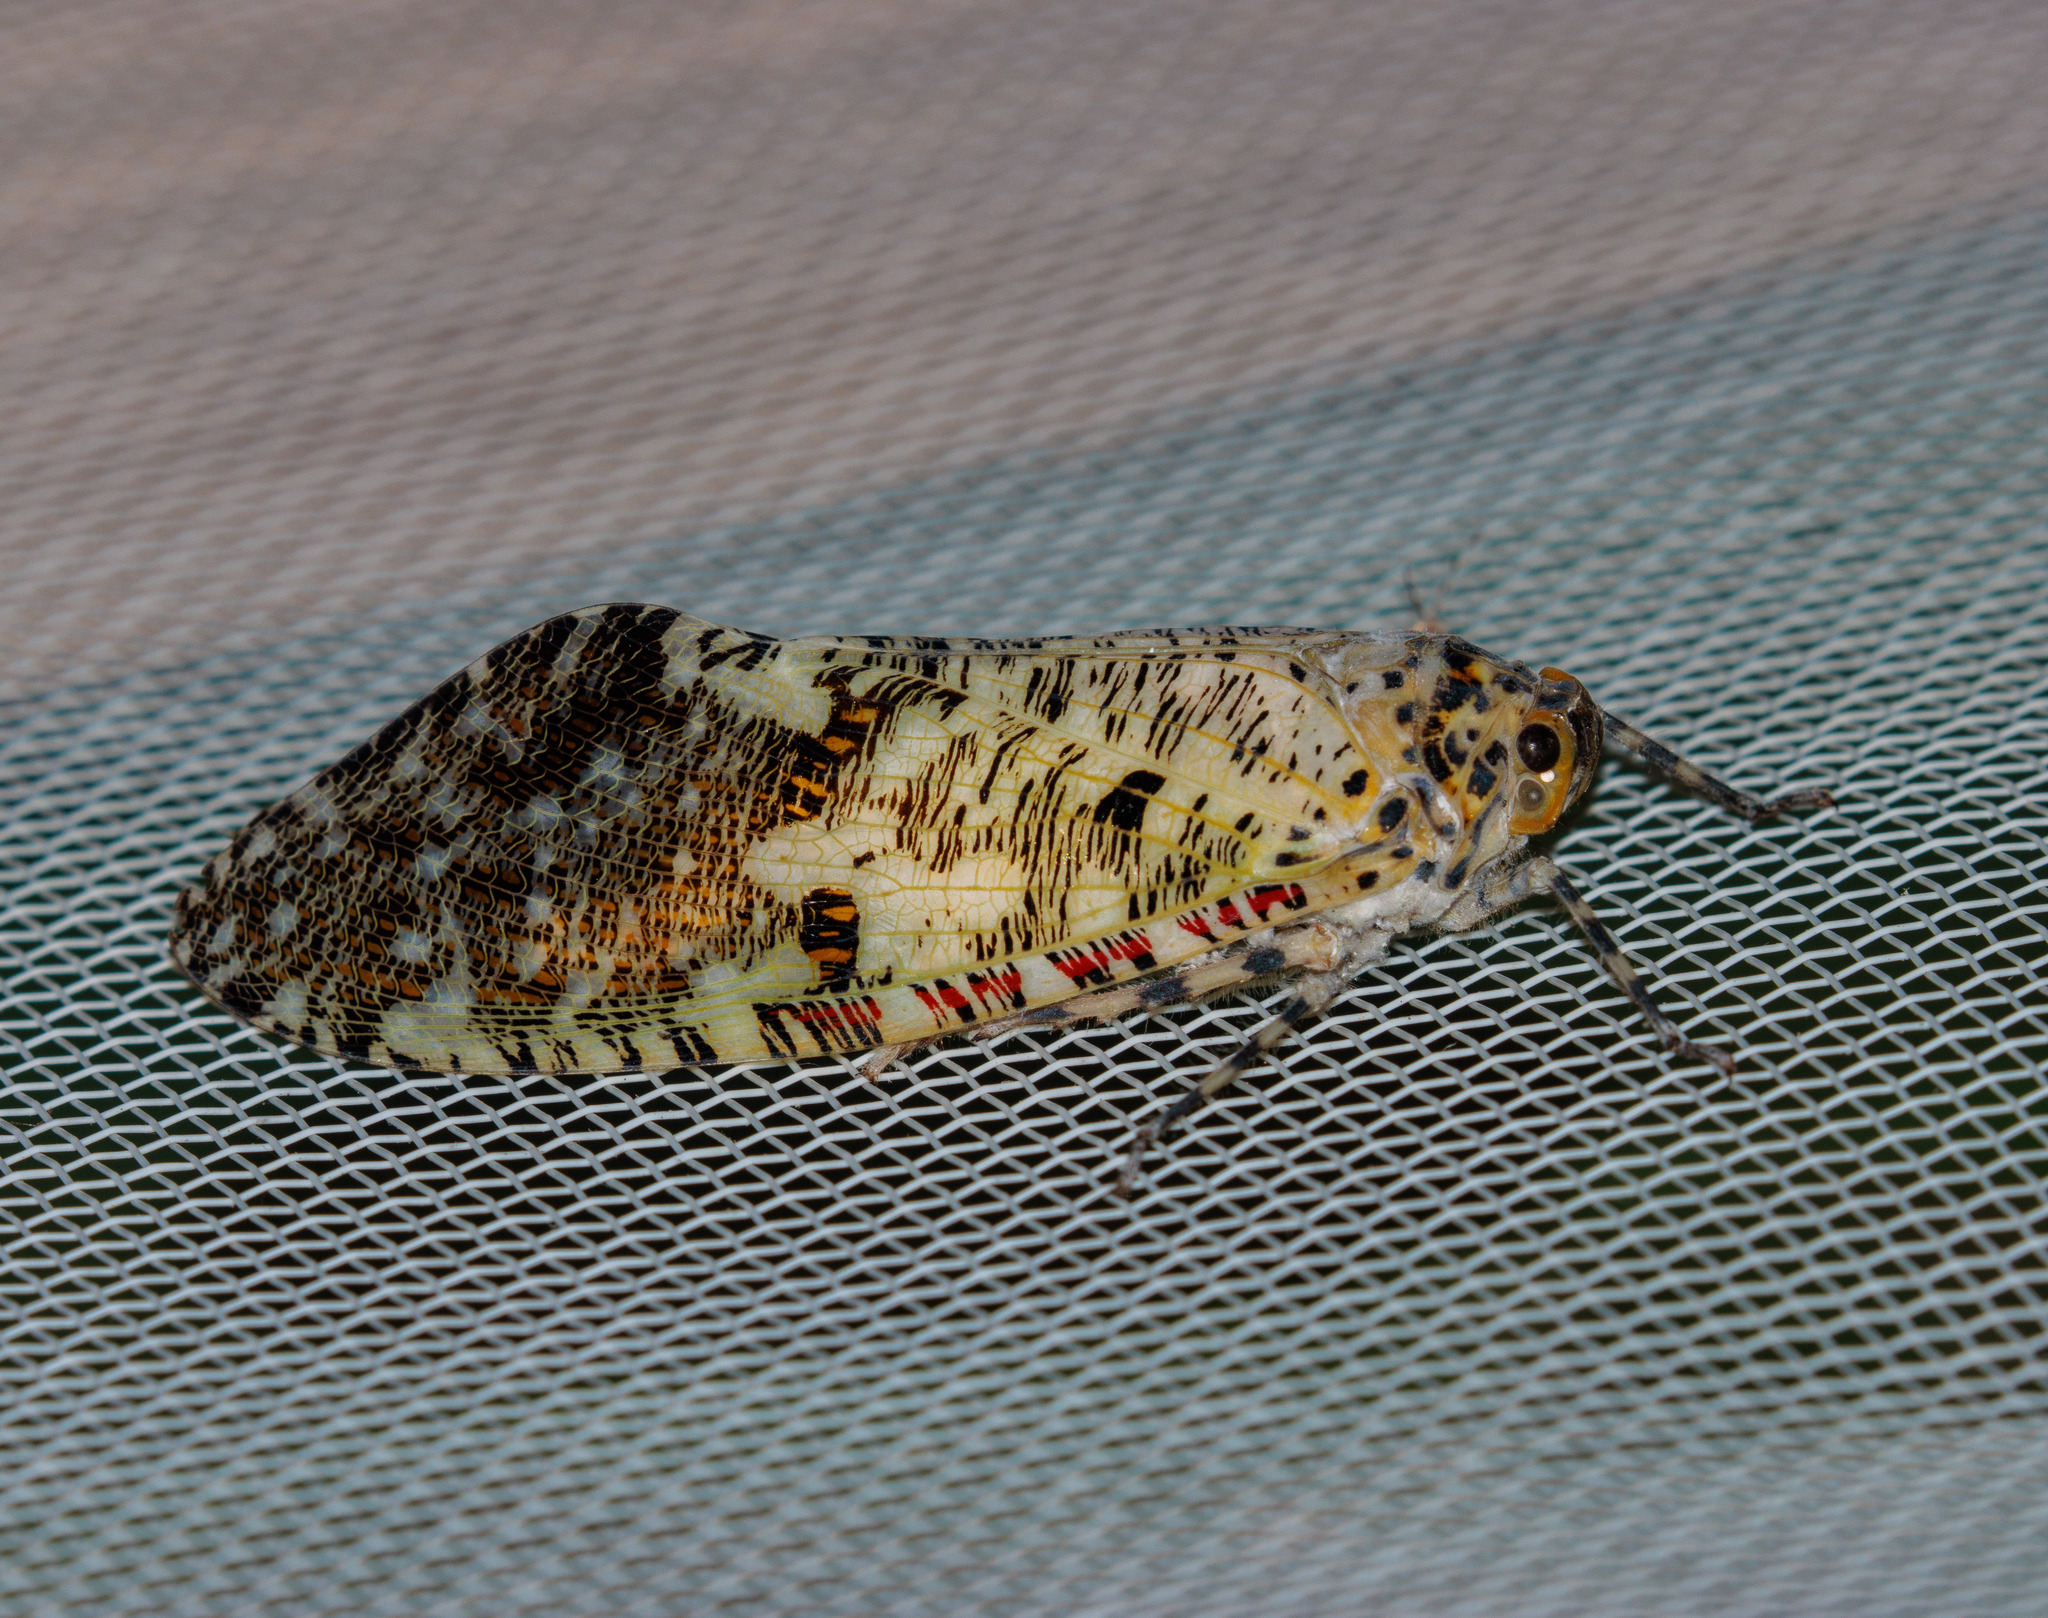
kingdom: Animalia
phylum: Arthropoda
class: Insecta
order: Hemiptera
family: Fulgoridae
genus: Phenax
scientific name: Phenax variegata
